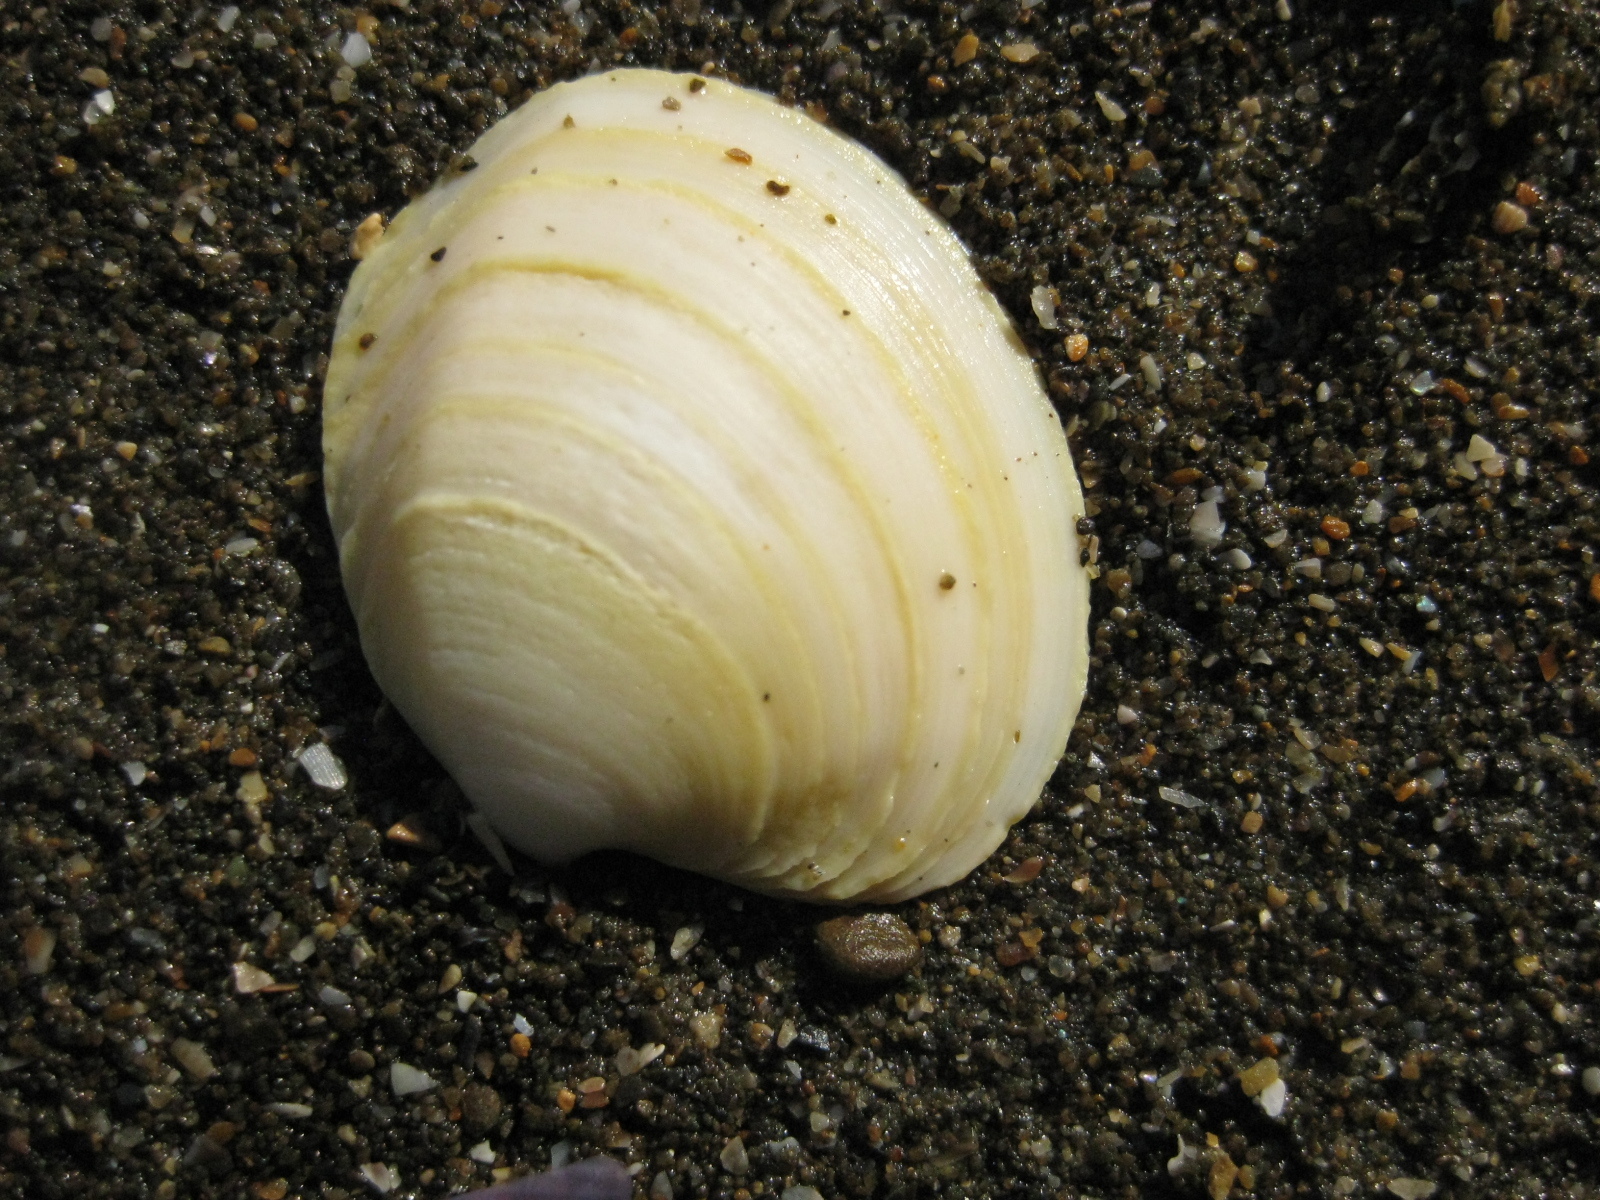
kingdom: Animalia
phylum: Mollusca
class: Bivalvia
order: Venerida
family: Veneridae
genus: Bassina
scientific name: Bassina yatei
